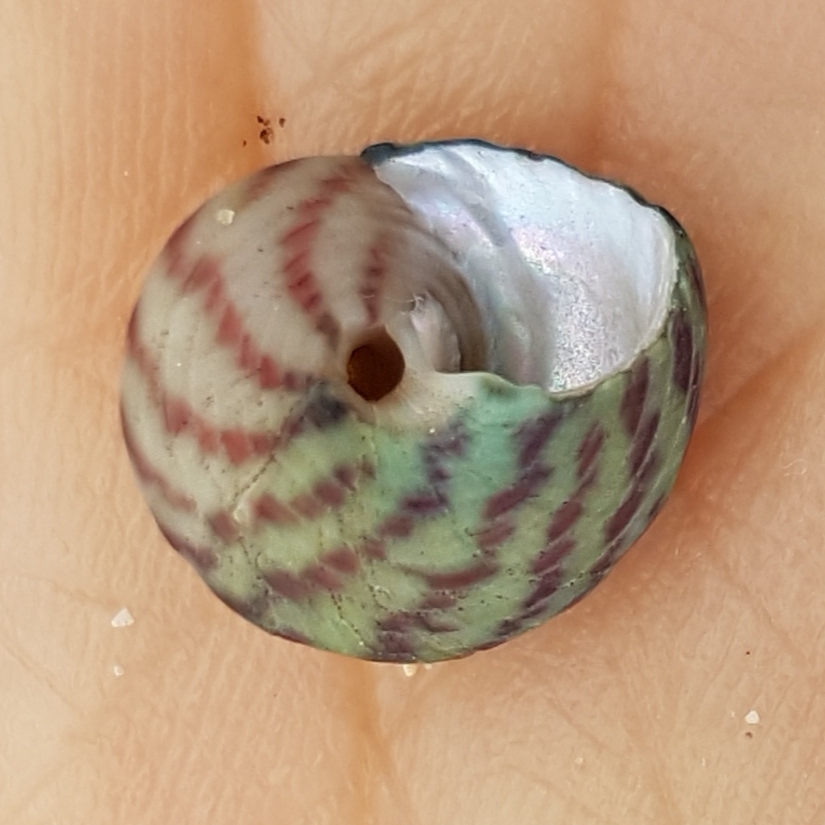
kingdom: Animalia
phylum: Mollusca
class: Gastropoda
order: Trochida
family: Trochidae
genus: Steromphala
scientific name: Steromphala umbilicalis
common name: Flat top shell
